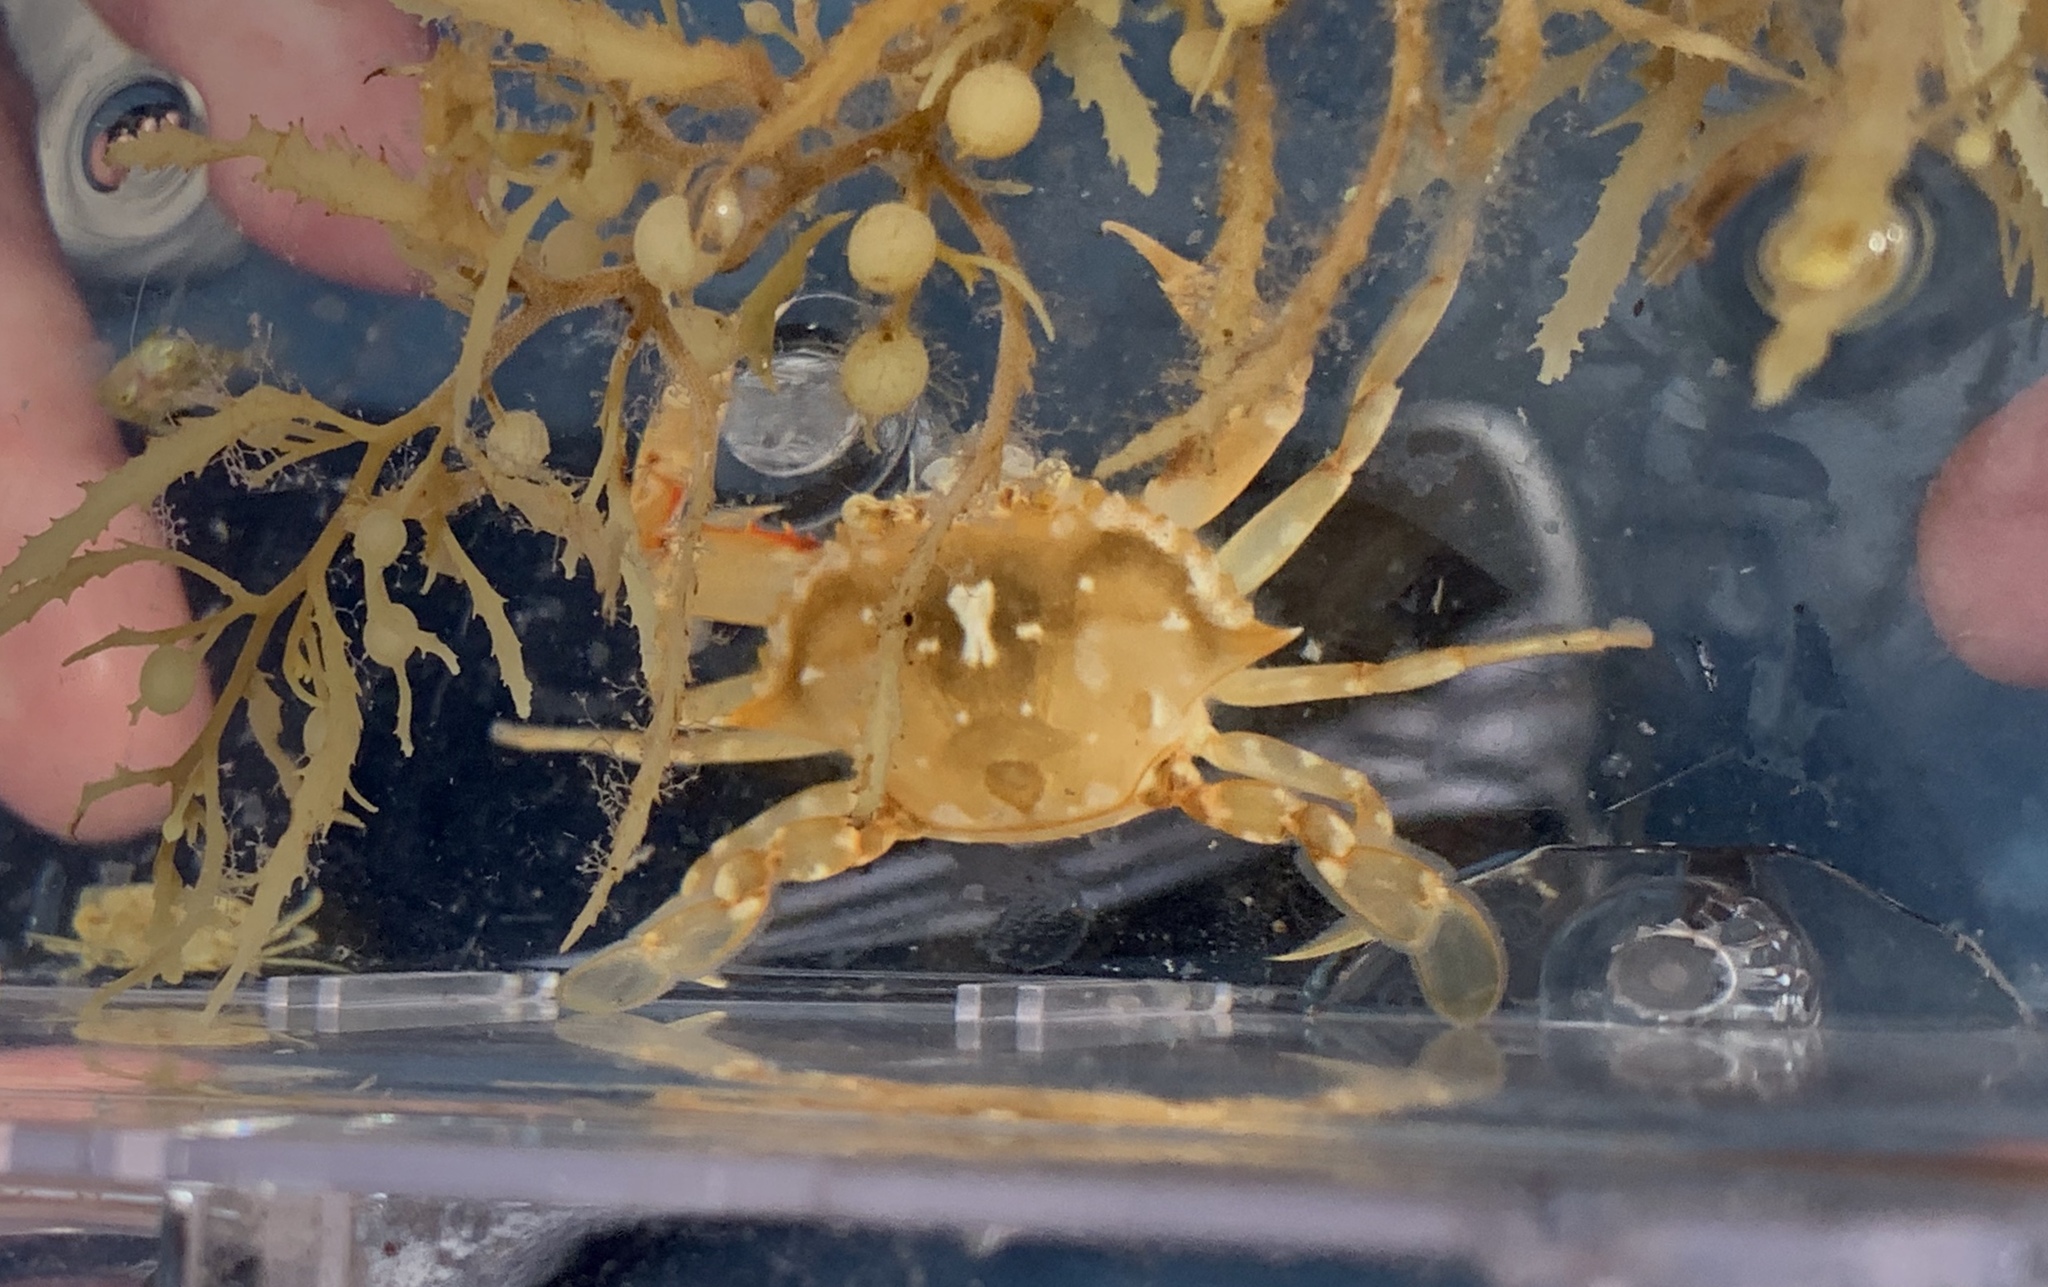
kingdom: Animalia
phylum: Arthropoda
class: Malacostraca
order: Decapoda
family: Portunidae
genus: Portunus
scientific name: Portunus sayi
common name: Sargassum crab
